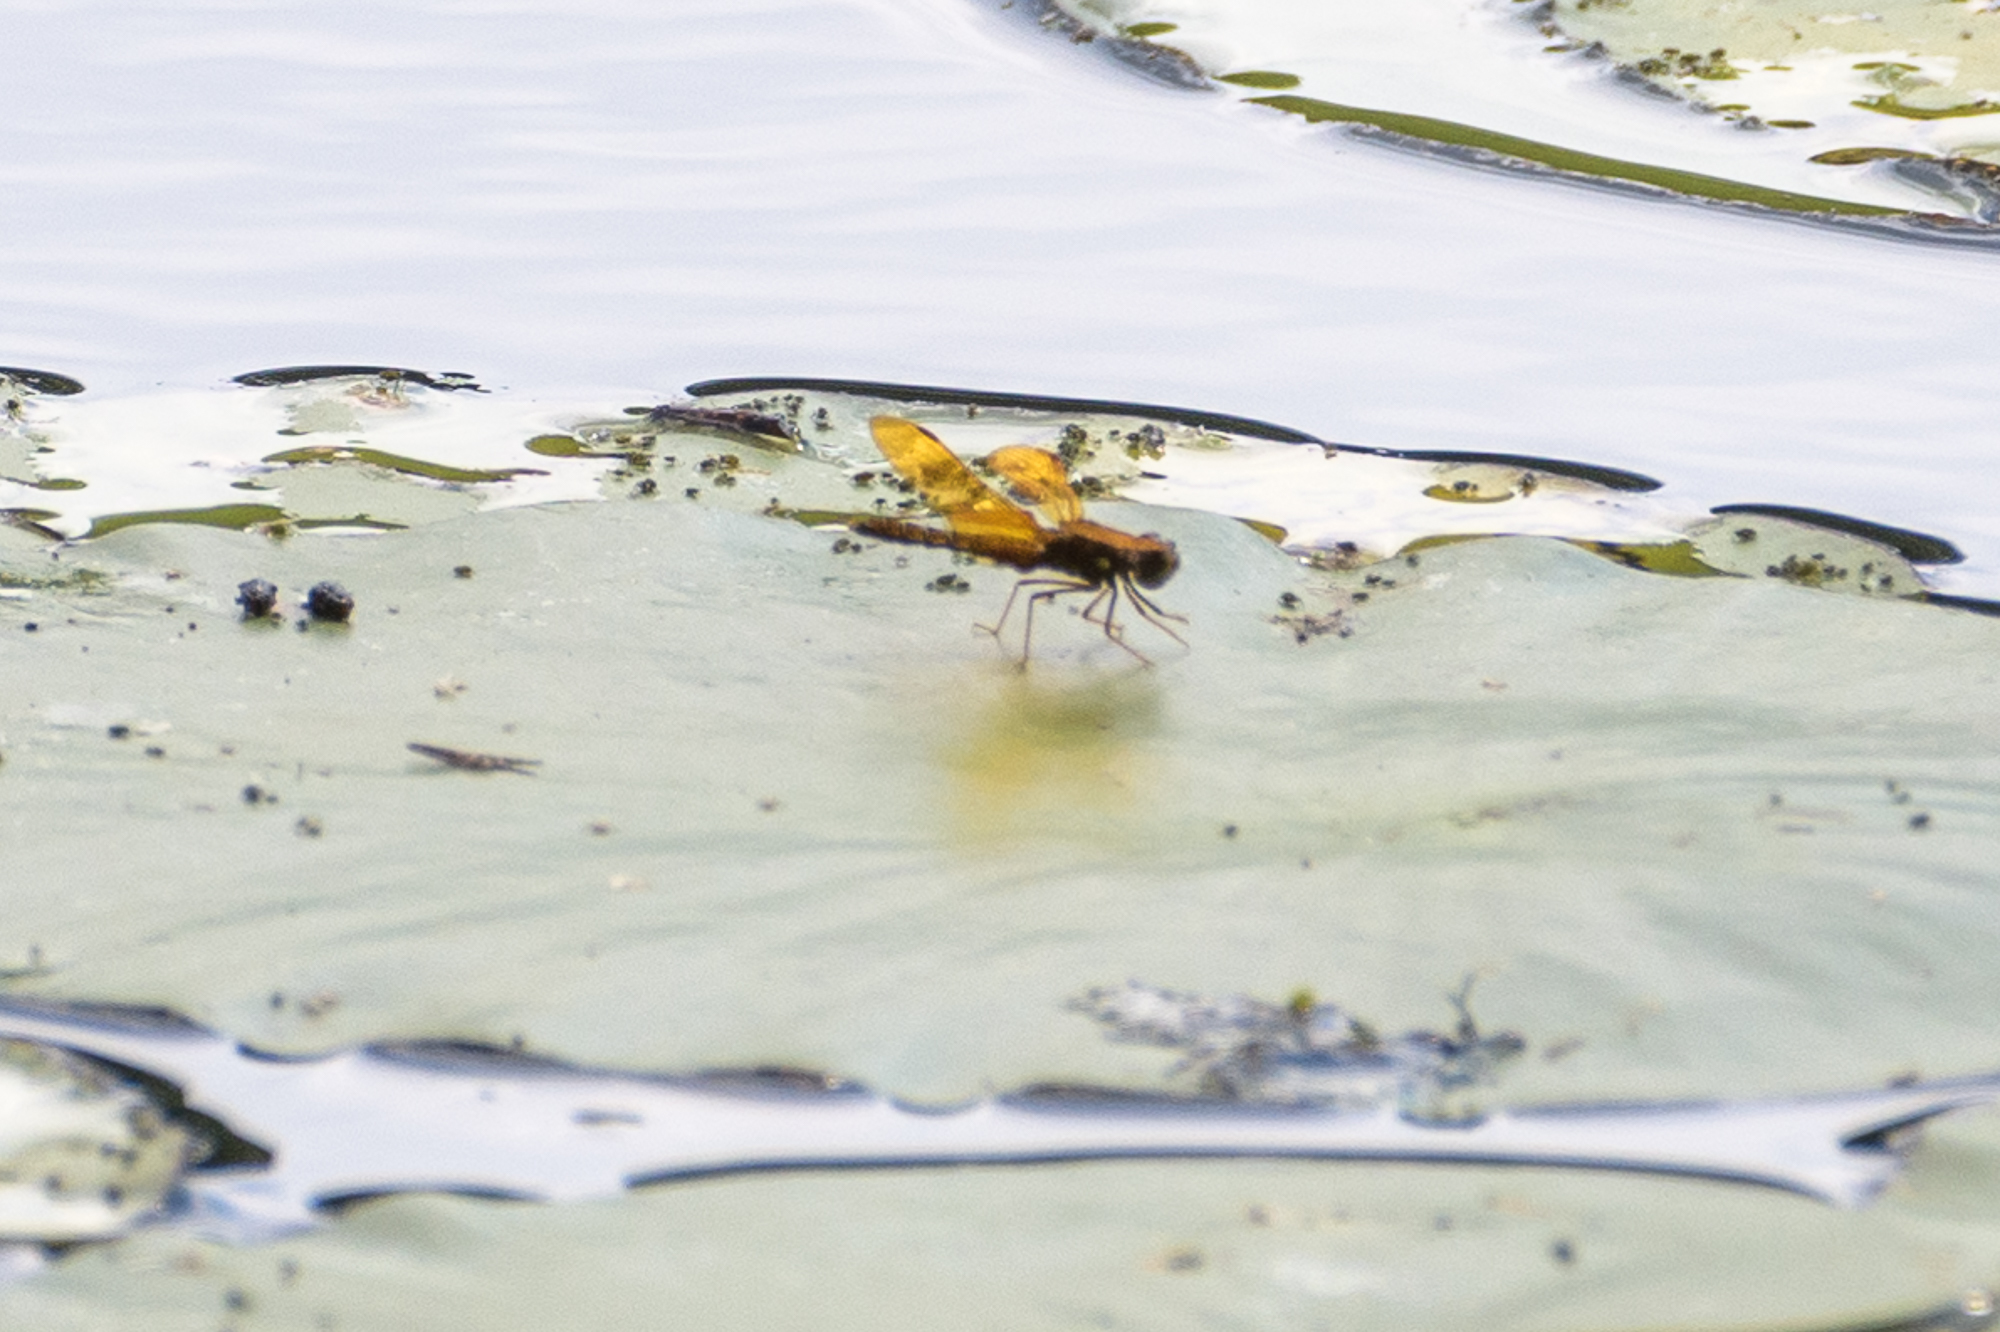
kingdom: Animalia
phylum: Arthropoda
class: Insecta
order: Odonata
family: Libellulidae
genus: Perithemis
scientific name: Perithemis tenera
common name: Eastern amberwing
